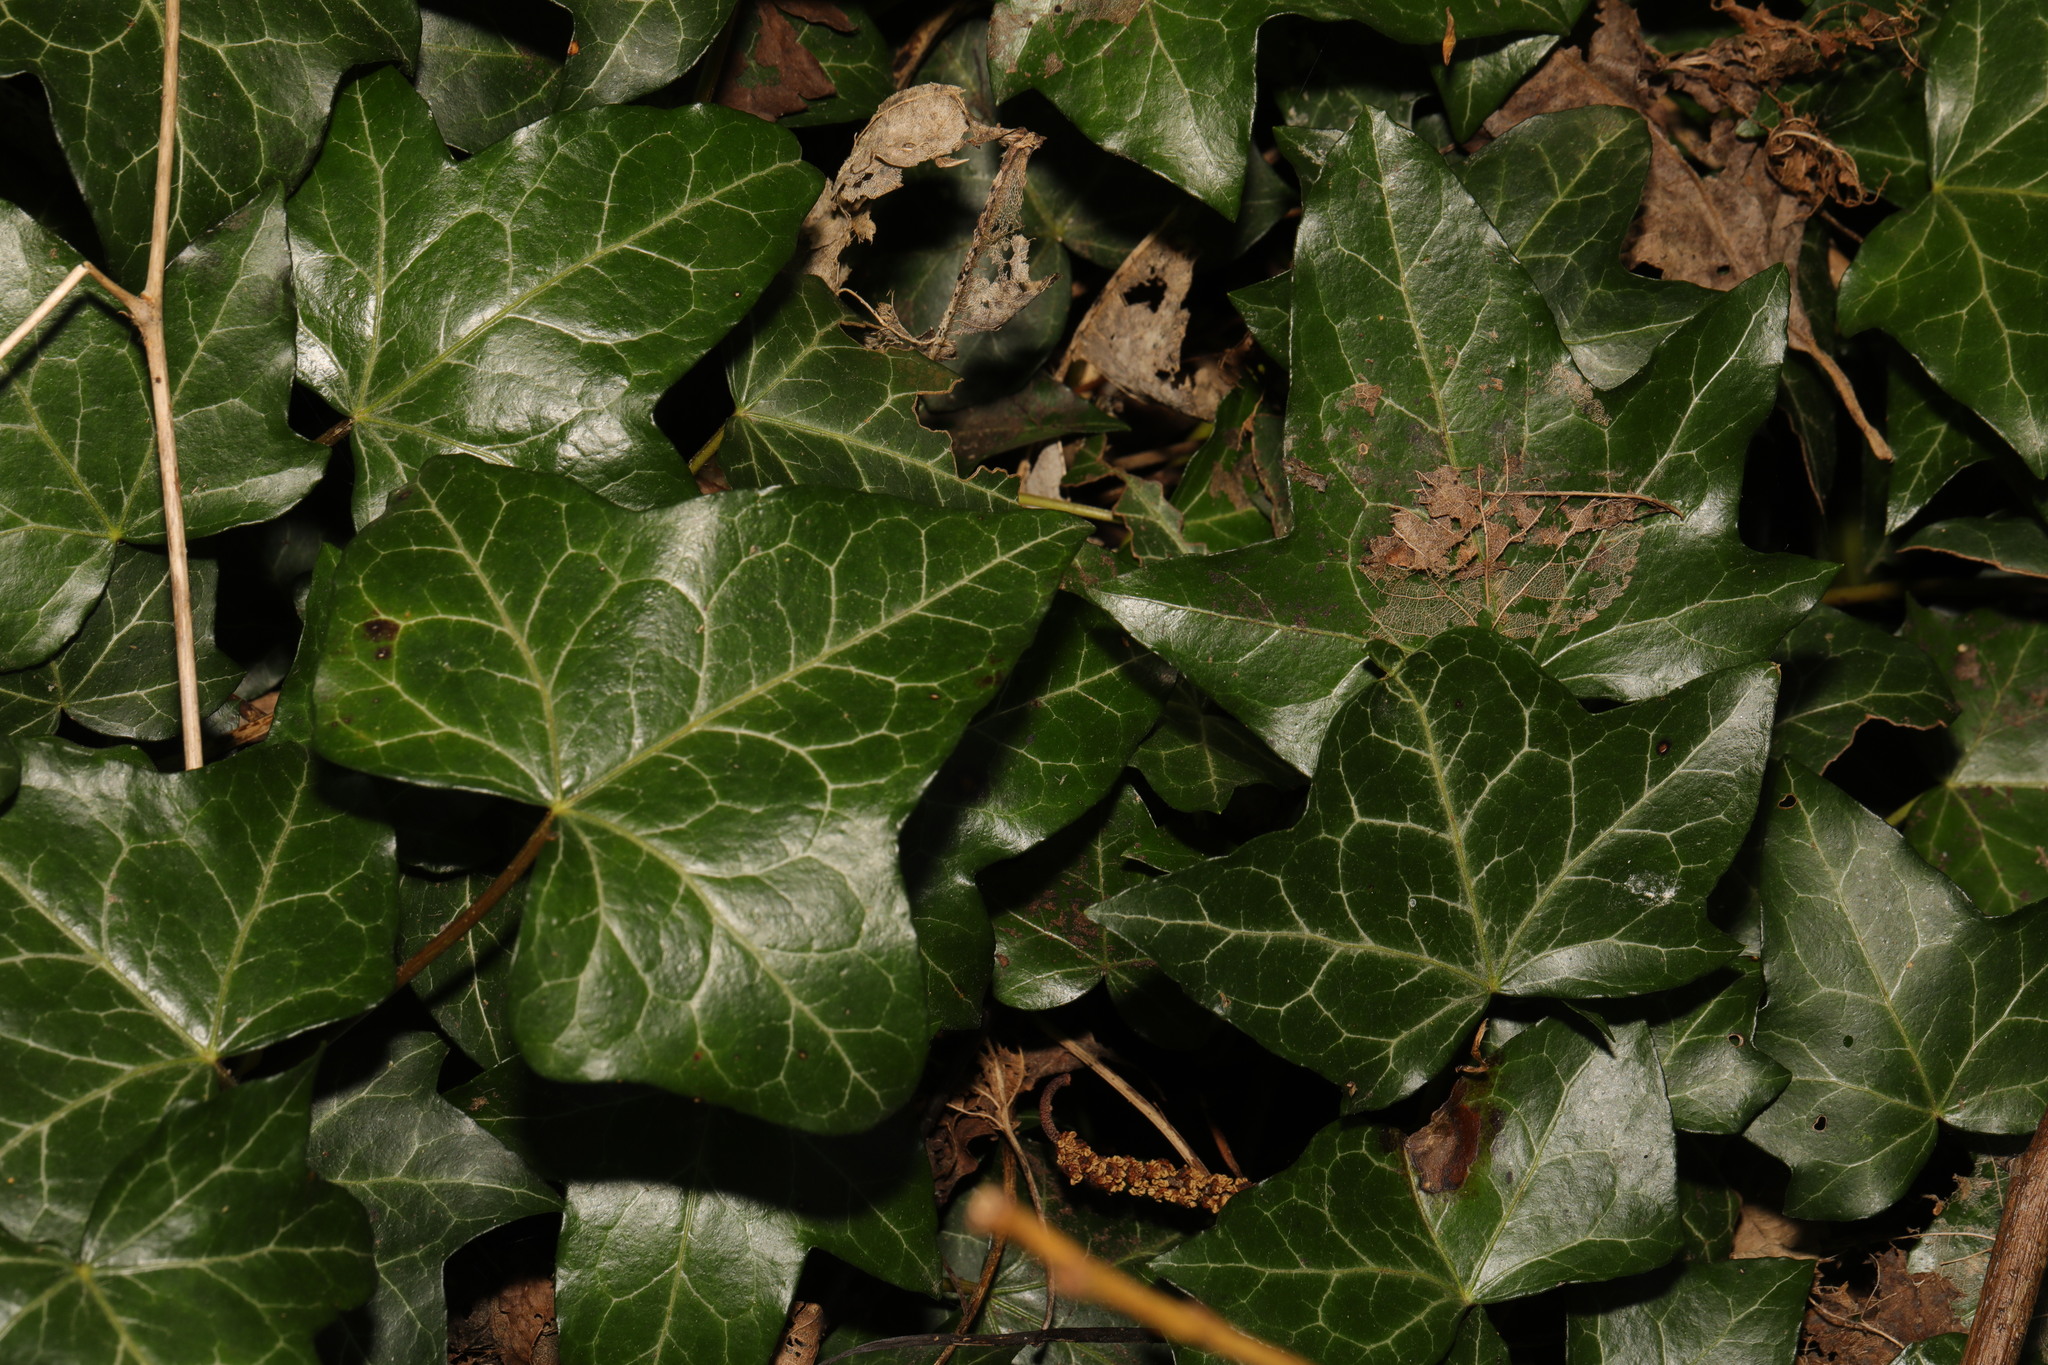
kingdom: Plantae
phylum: Tracheophyta
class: Magnoliopsida
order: Apiales
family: Araliaceae
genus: Hedera
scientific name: Hedera helix
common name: Ivy
